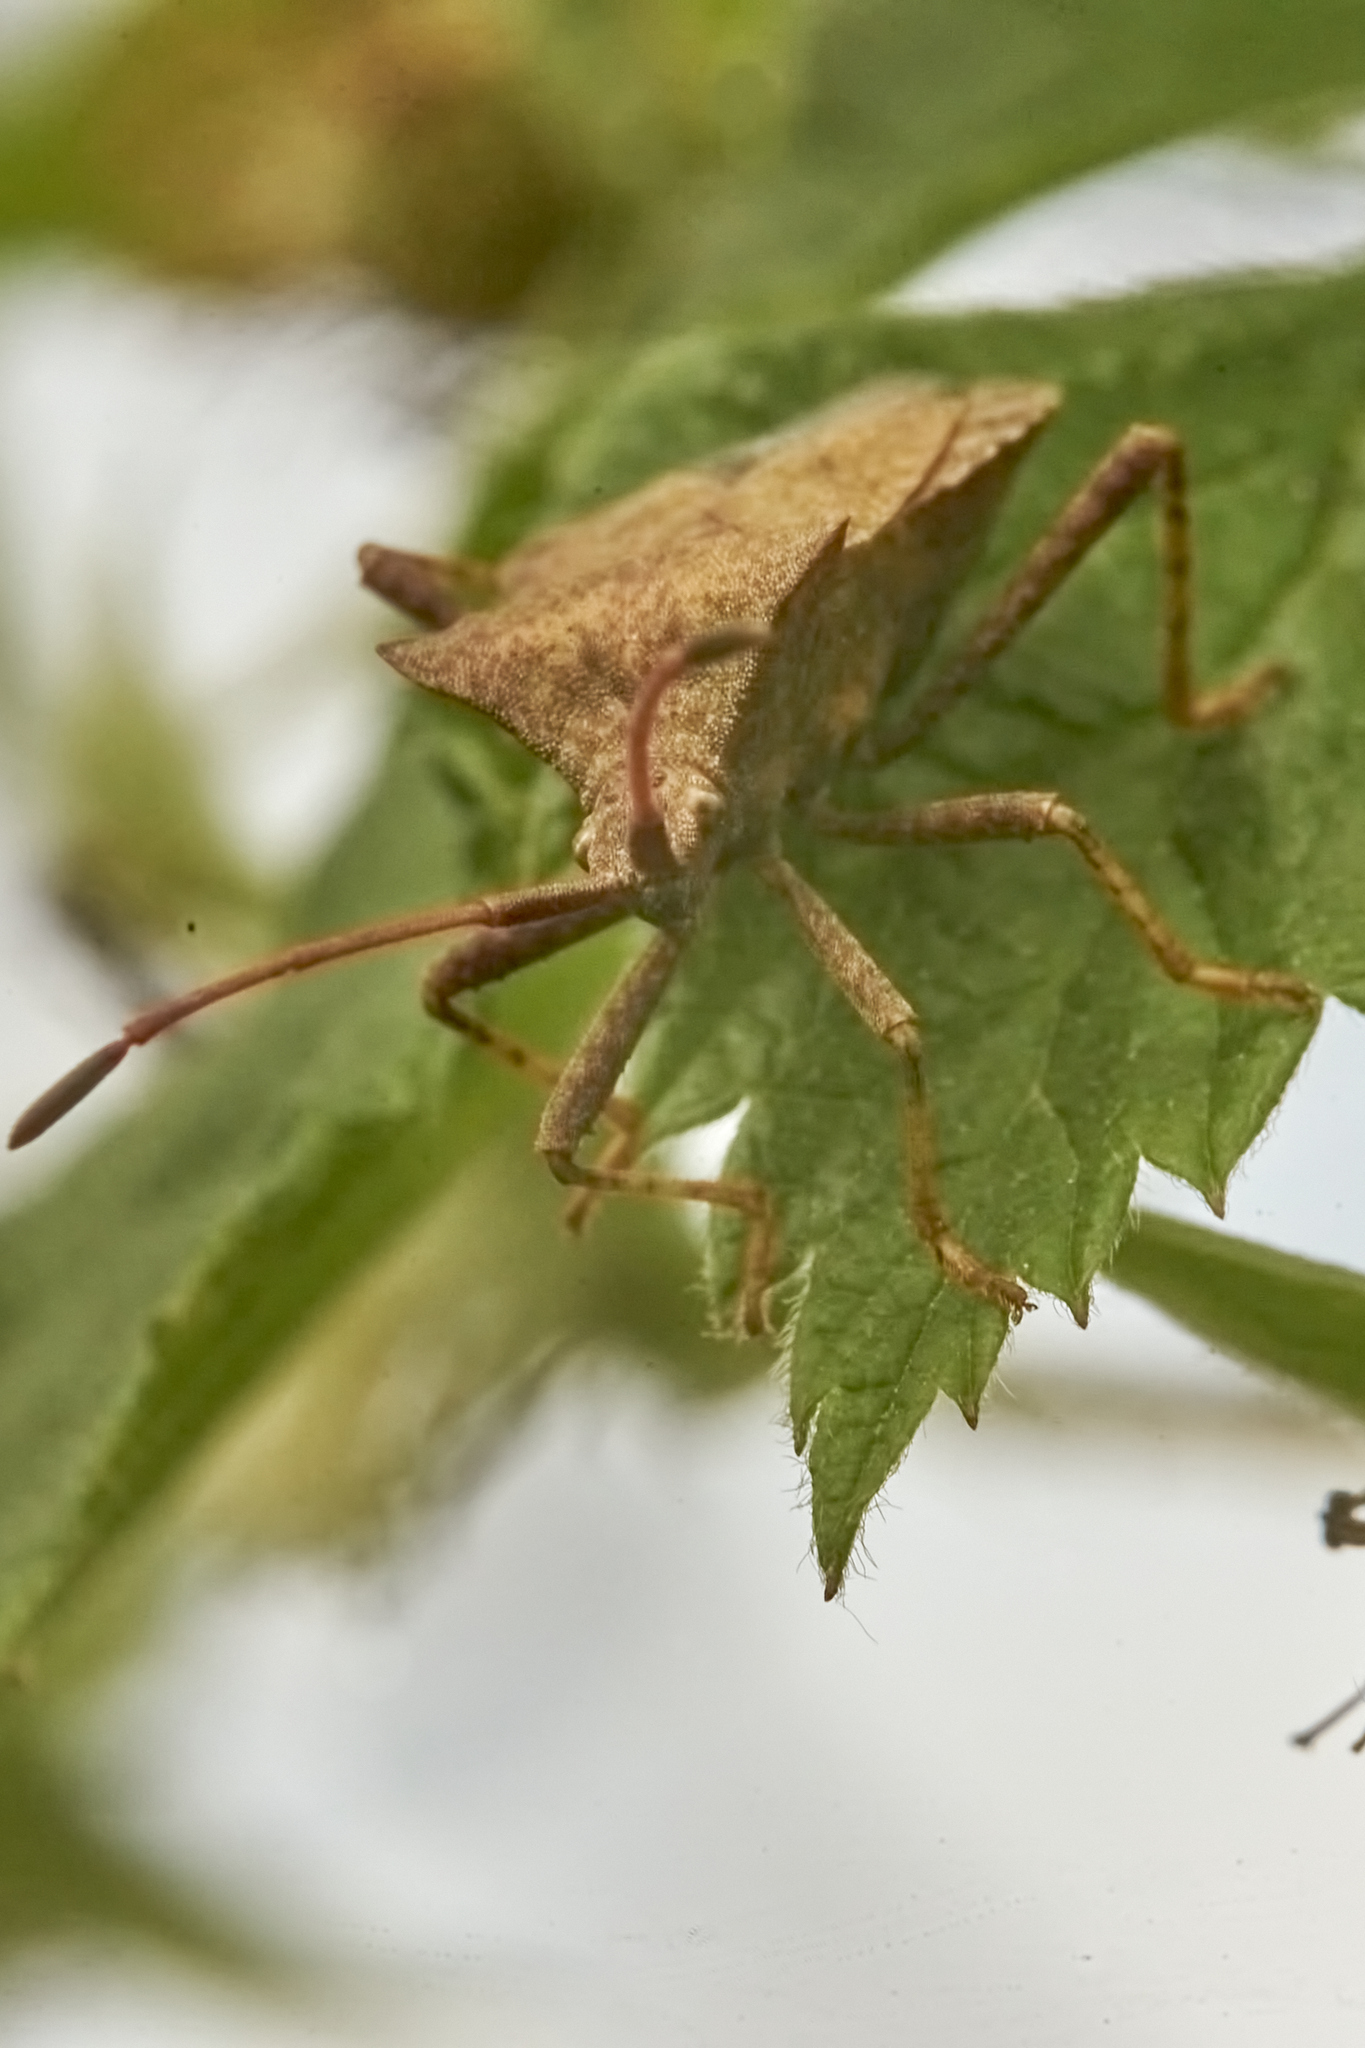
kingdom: Animalia
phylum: Arthropoda
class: Insecta
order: Hemiptera
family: Coreidae
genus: Coreus
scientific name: Coreus marginatus
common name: Dock bug
